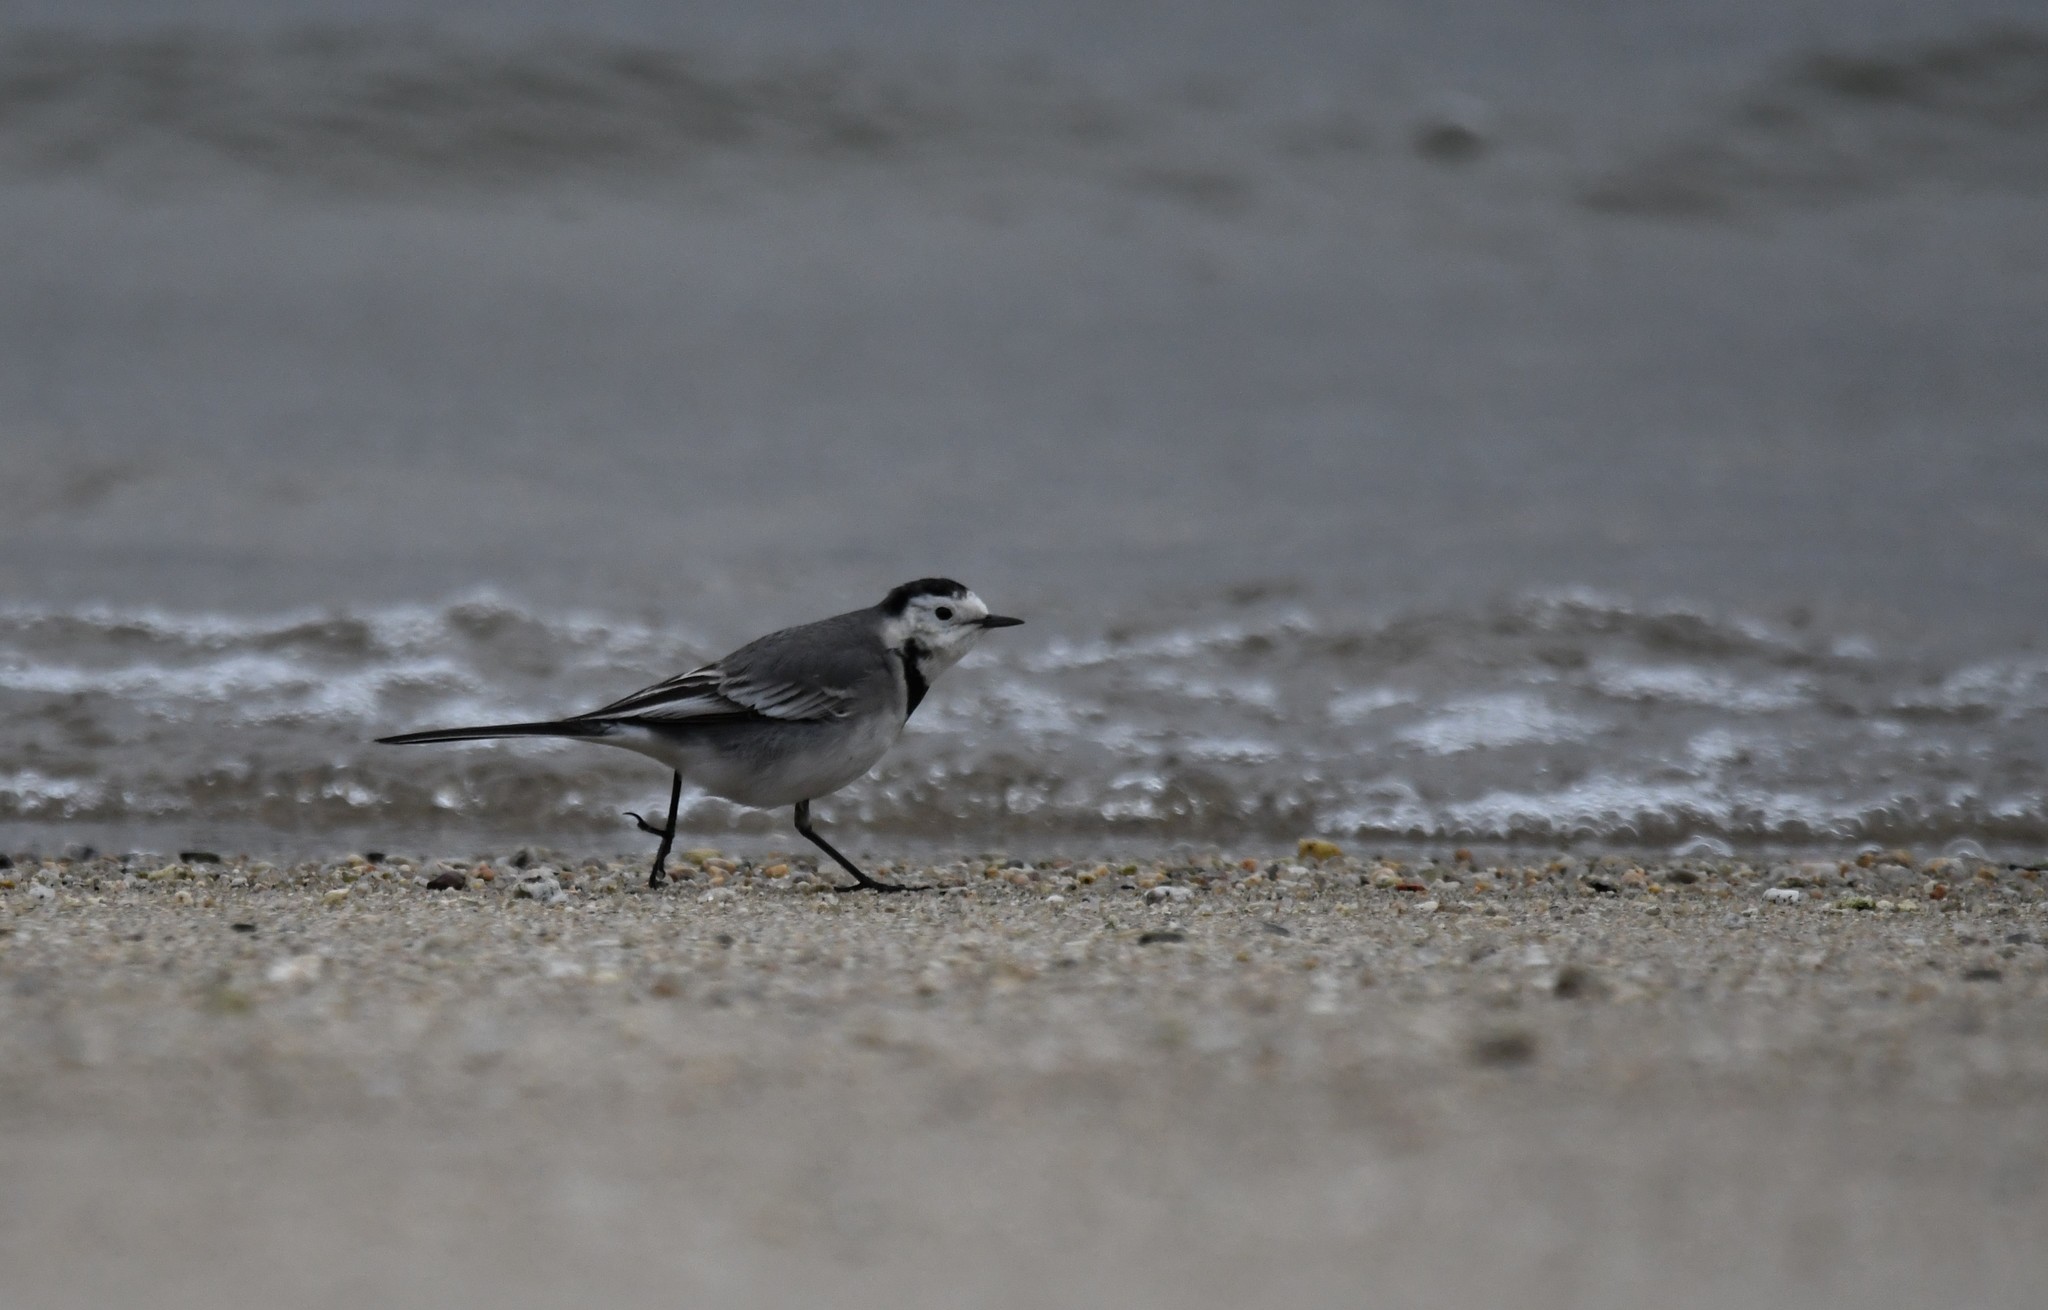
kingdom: Animalia
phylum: Chordata
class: Aves
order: Passeriformes
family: Motacillidae
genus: Motacilla
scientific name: Motacilla alba
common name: White wagtail
